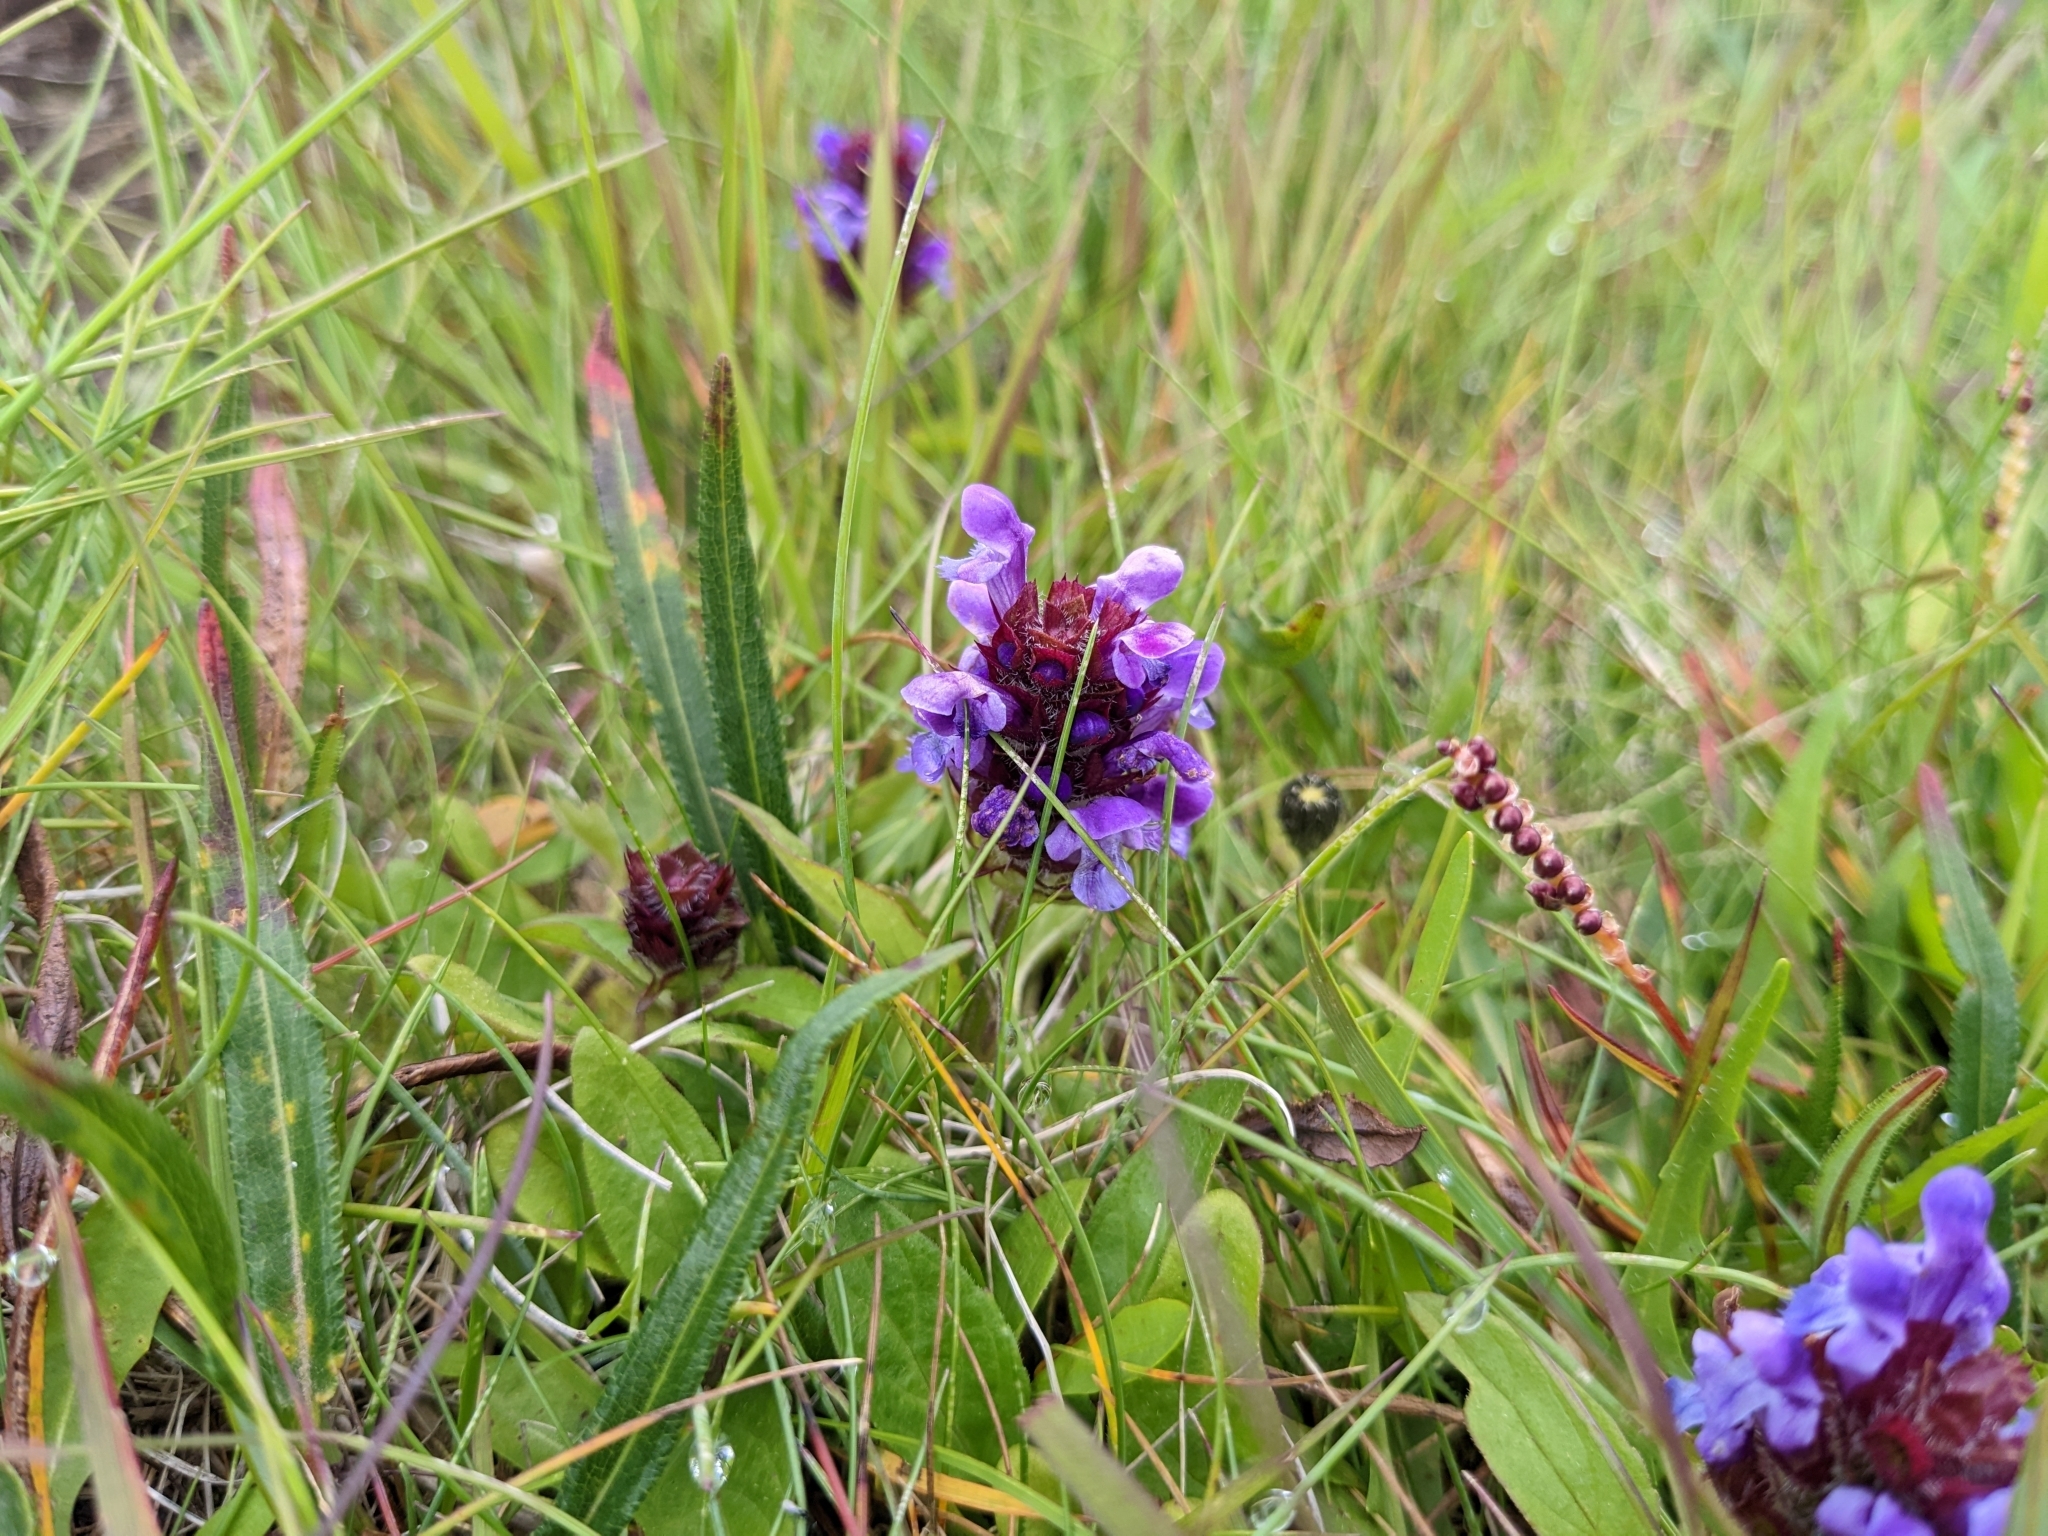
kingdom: Plantae
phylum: Tracheophyta
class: Magnoliopsida
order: Lamiales
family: Lamiaceae
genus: Prunella
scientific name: Prunella vulgaris
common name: Heal-all
